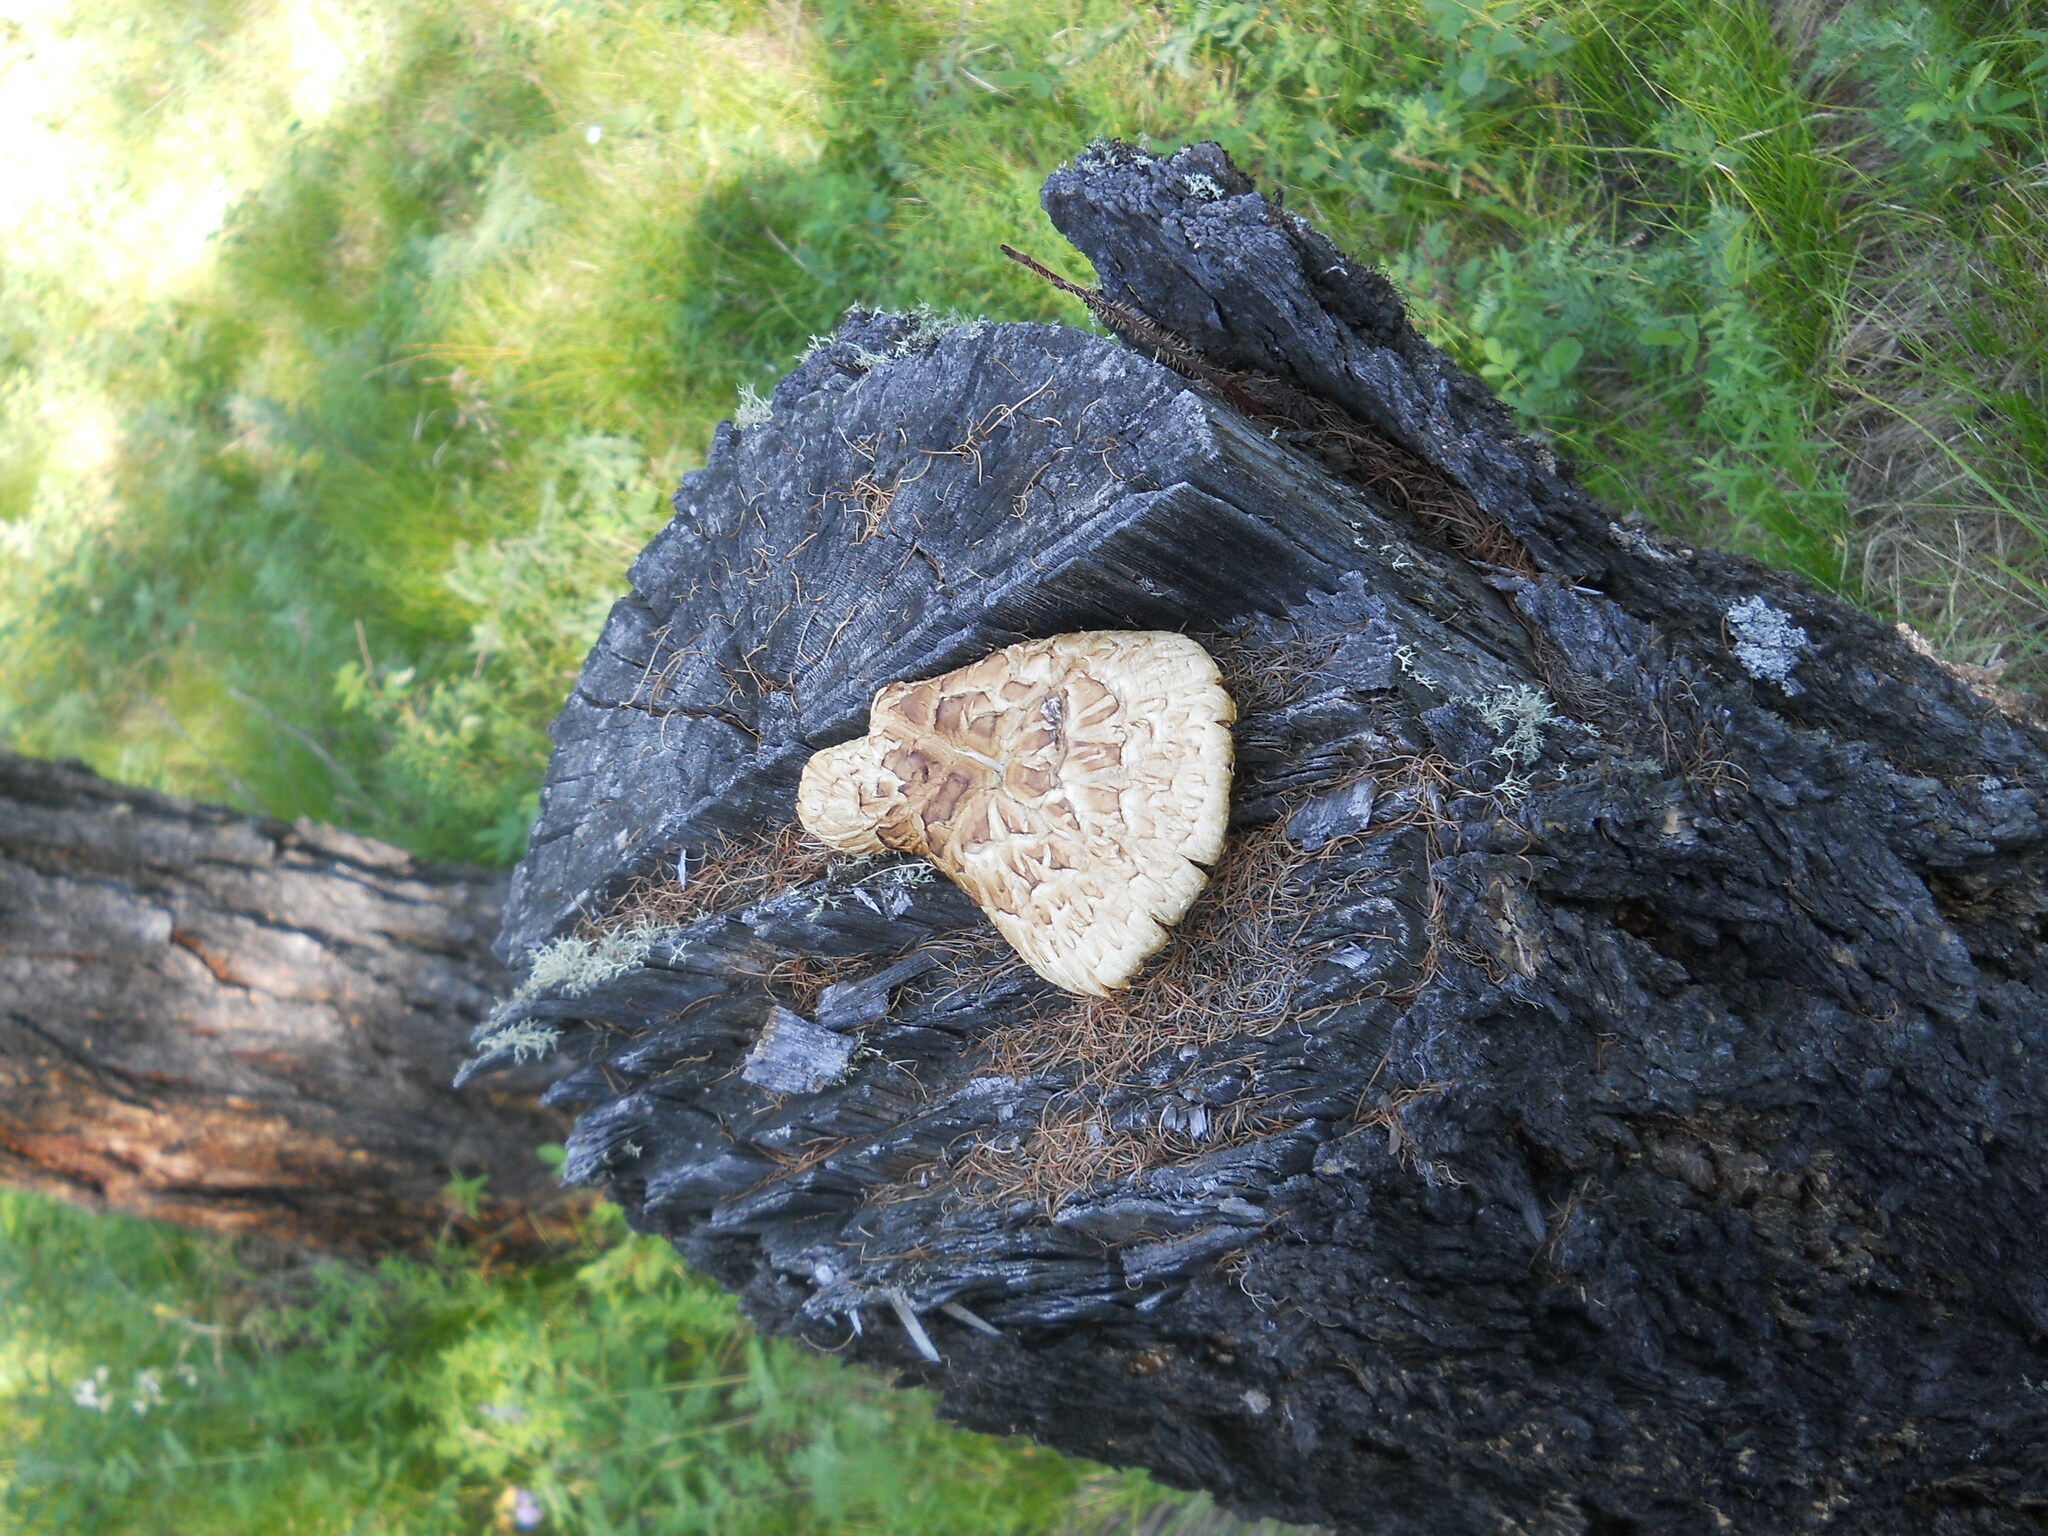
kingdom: Fungi
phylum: Basidiomycota
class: Agaricomycetes
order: Gloeophyllales
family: Gloeophyllaceae
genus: Neolentinus
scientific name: Neolentinus lepideus
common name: Scaly sawgill
